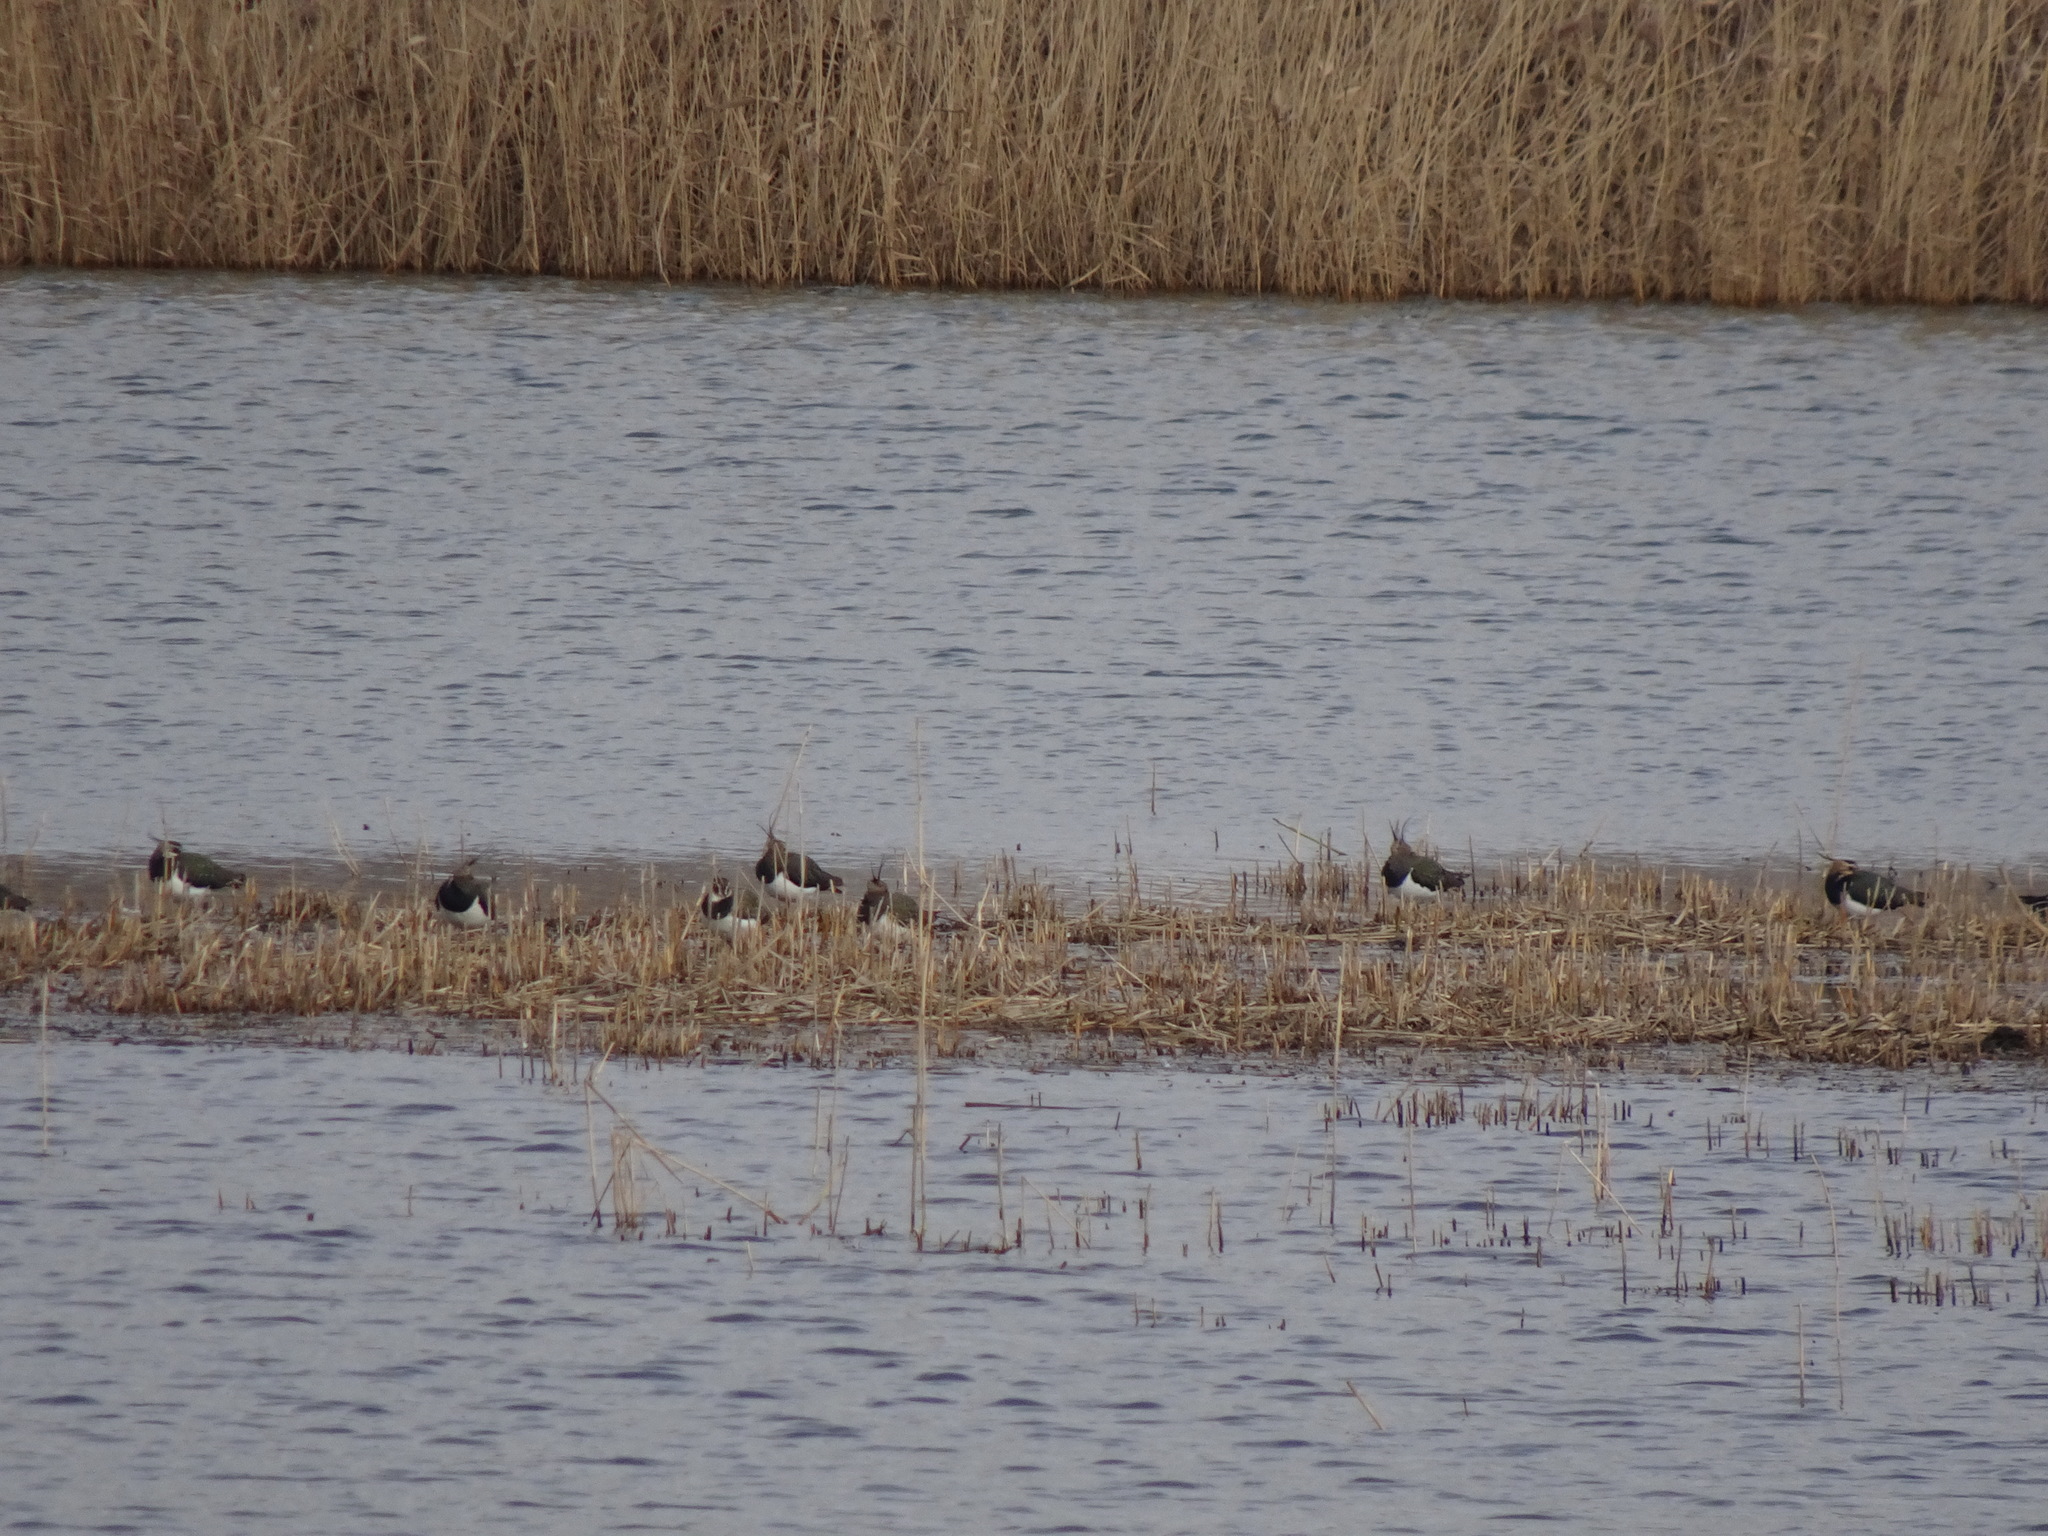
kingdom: Animalia
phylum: Chordata
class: Aves
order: Charadriiformes
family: Charadriidae
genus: Vanellus
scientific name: Vanellus vanellus
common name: Northern lapwing
